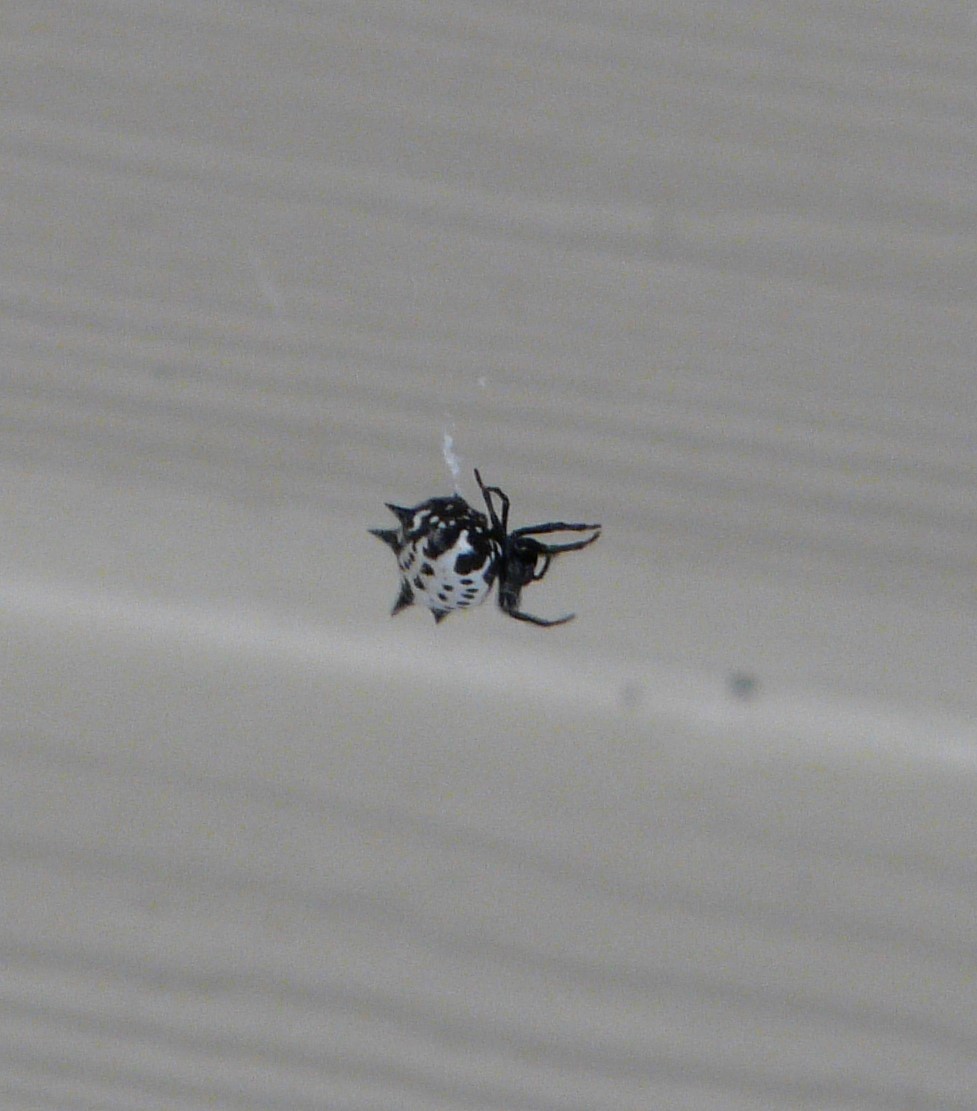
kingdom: Animalia
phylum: Arthropoda
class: Arachnida
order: Araneae
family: Araneidae
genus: Gasteracantha
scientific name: Gasteracantha cancriformis
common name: Orb weavers
